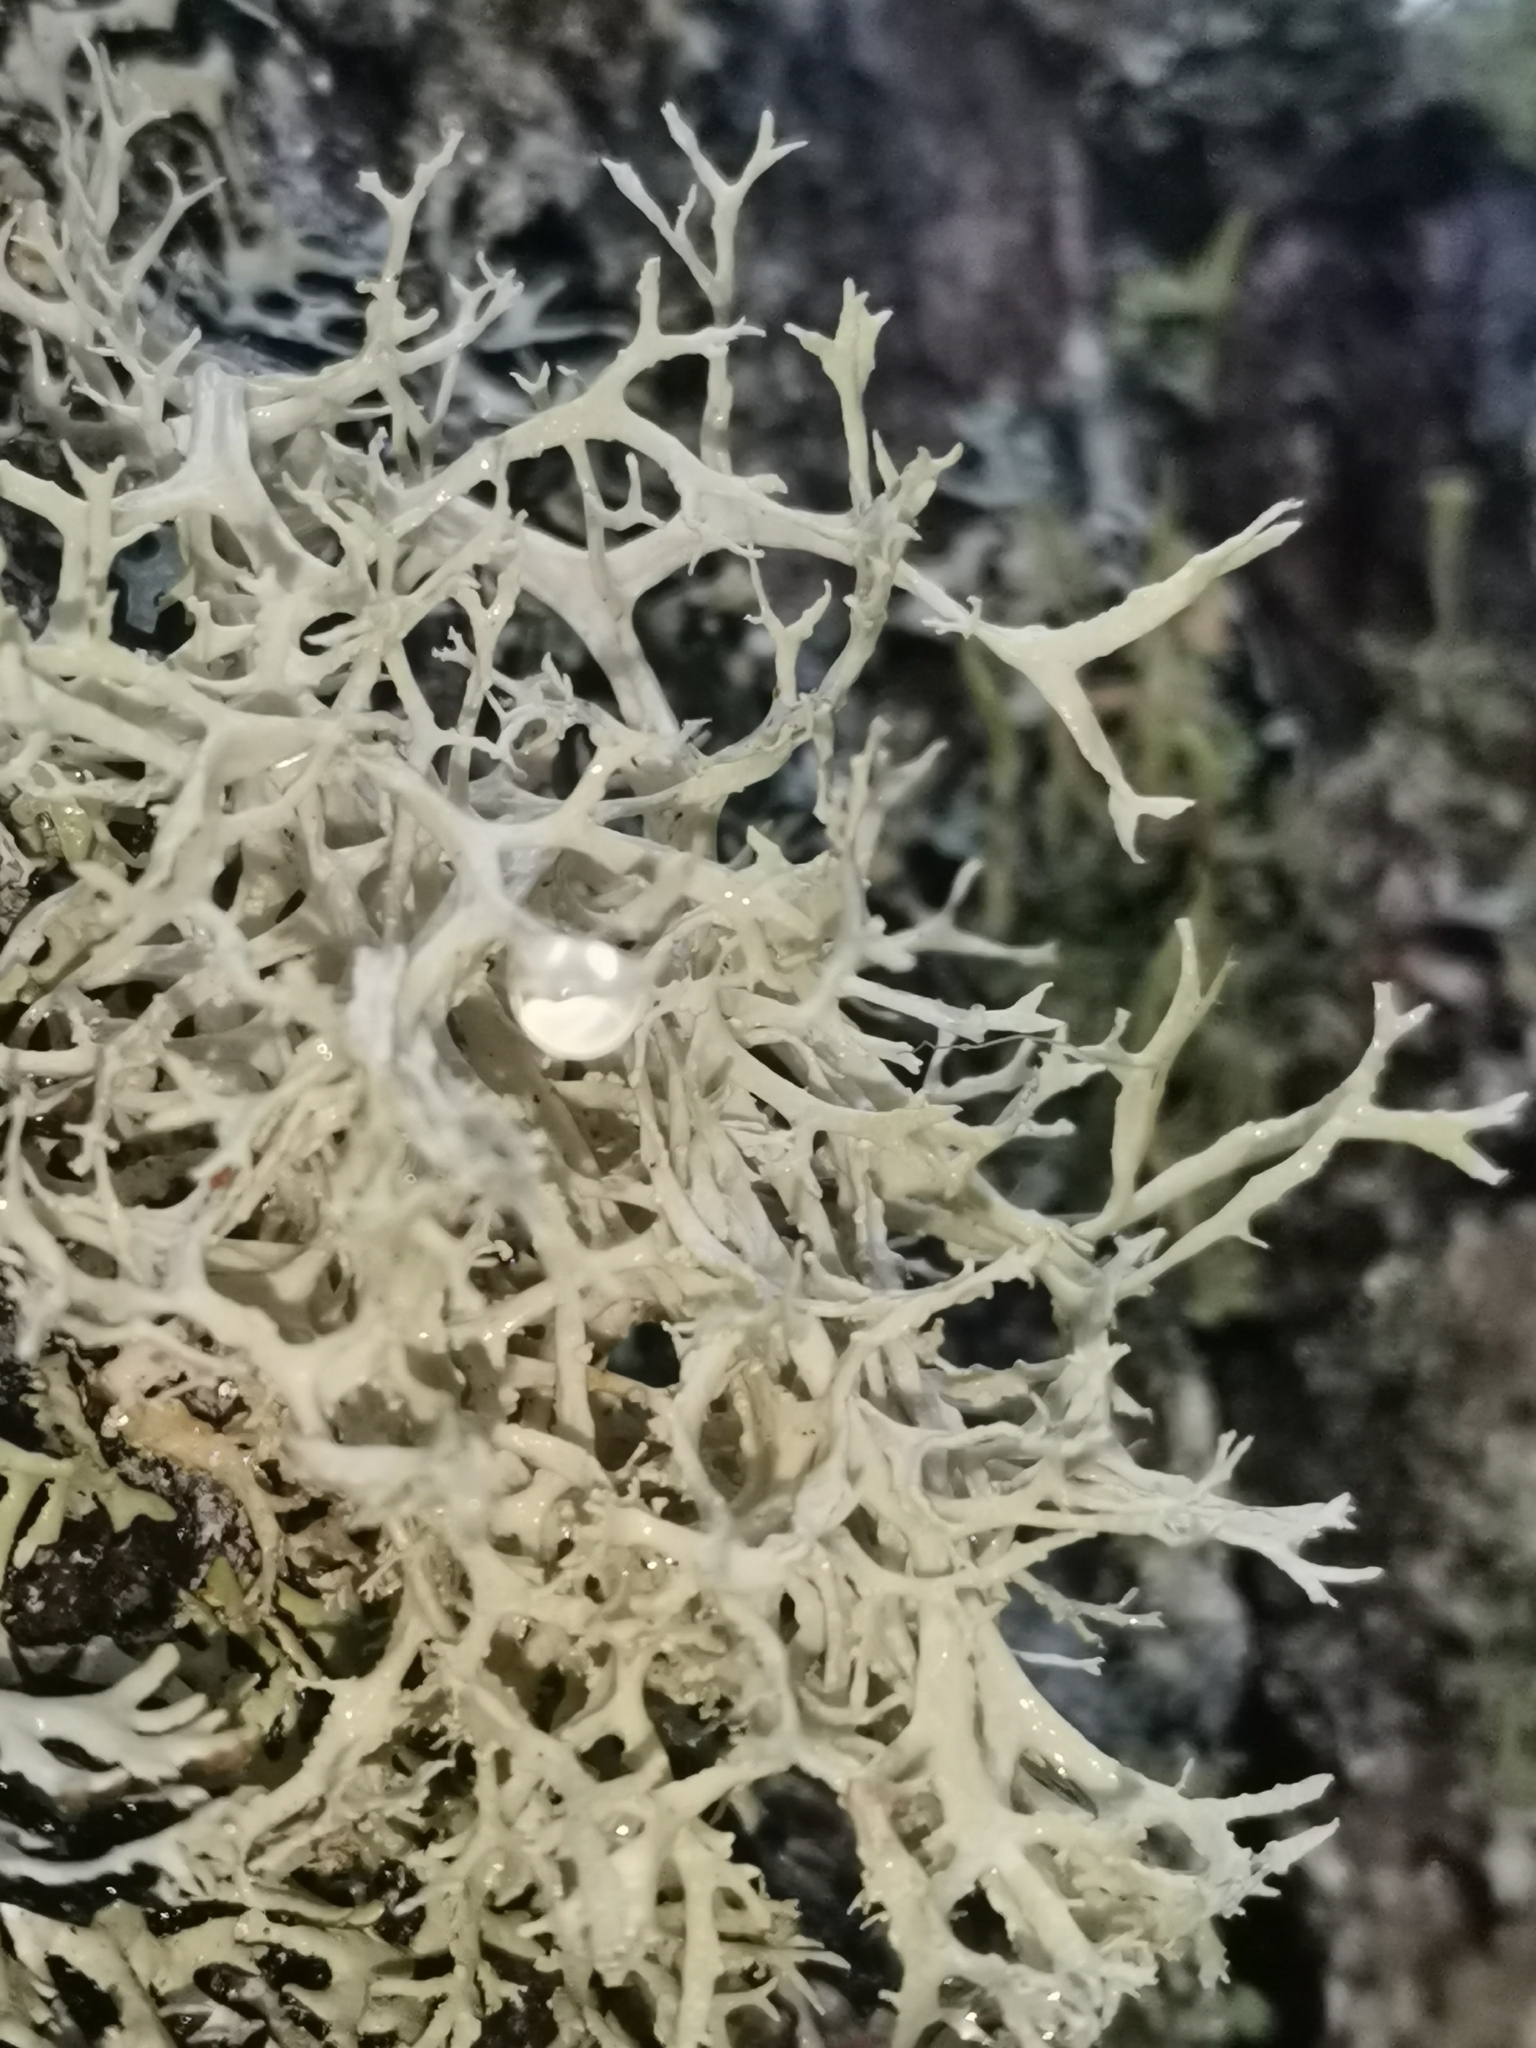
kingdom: Fungi
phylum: Ascomycota
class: Lecanoromycetes
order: Lecanorales
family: Parmeliaceae
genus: Evernia
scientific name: Evernia prunastri
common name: Oak moss
